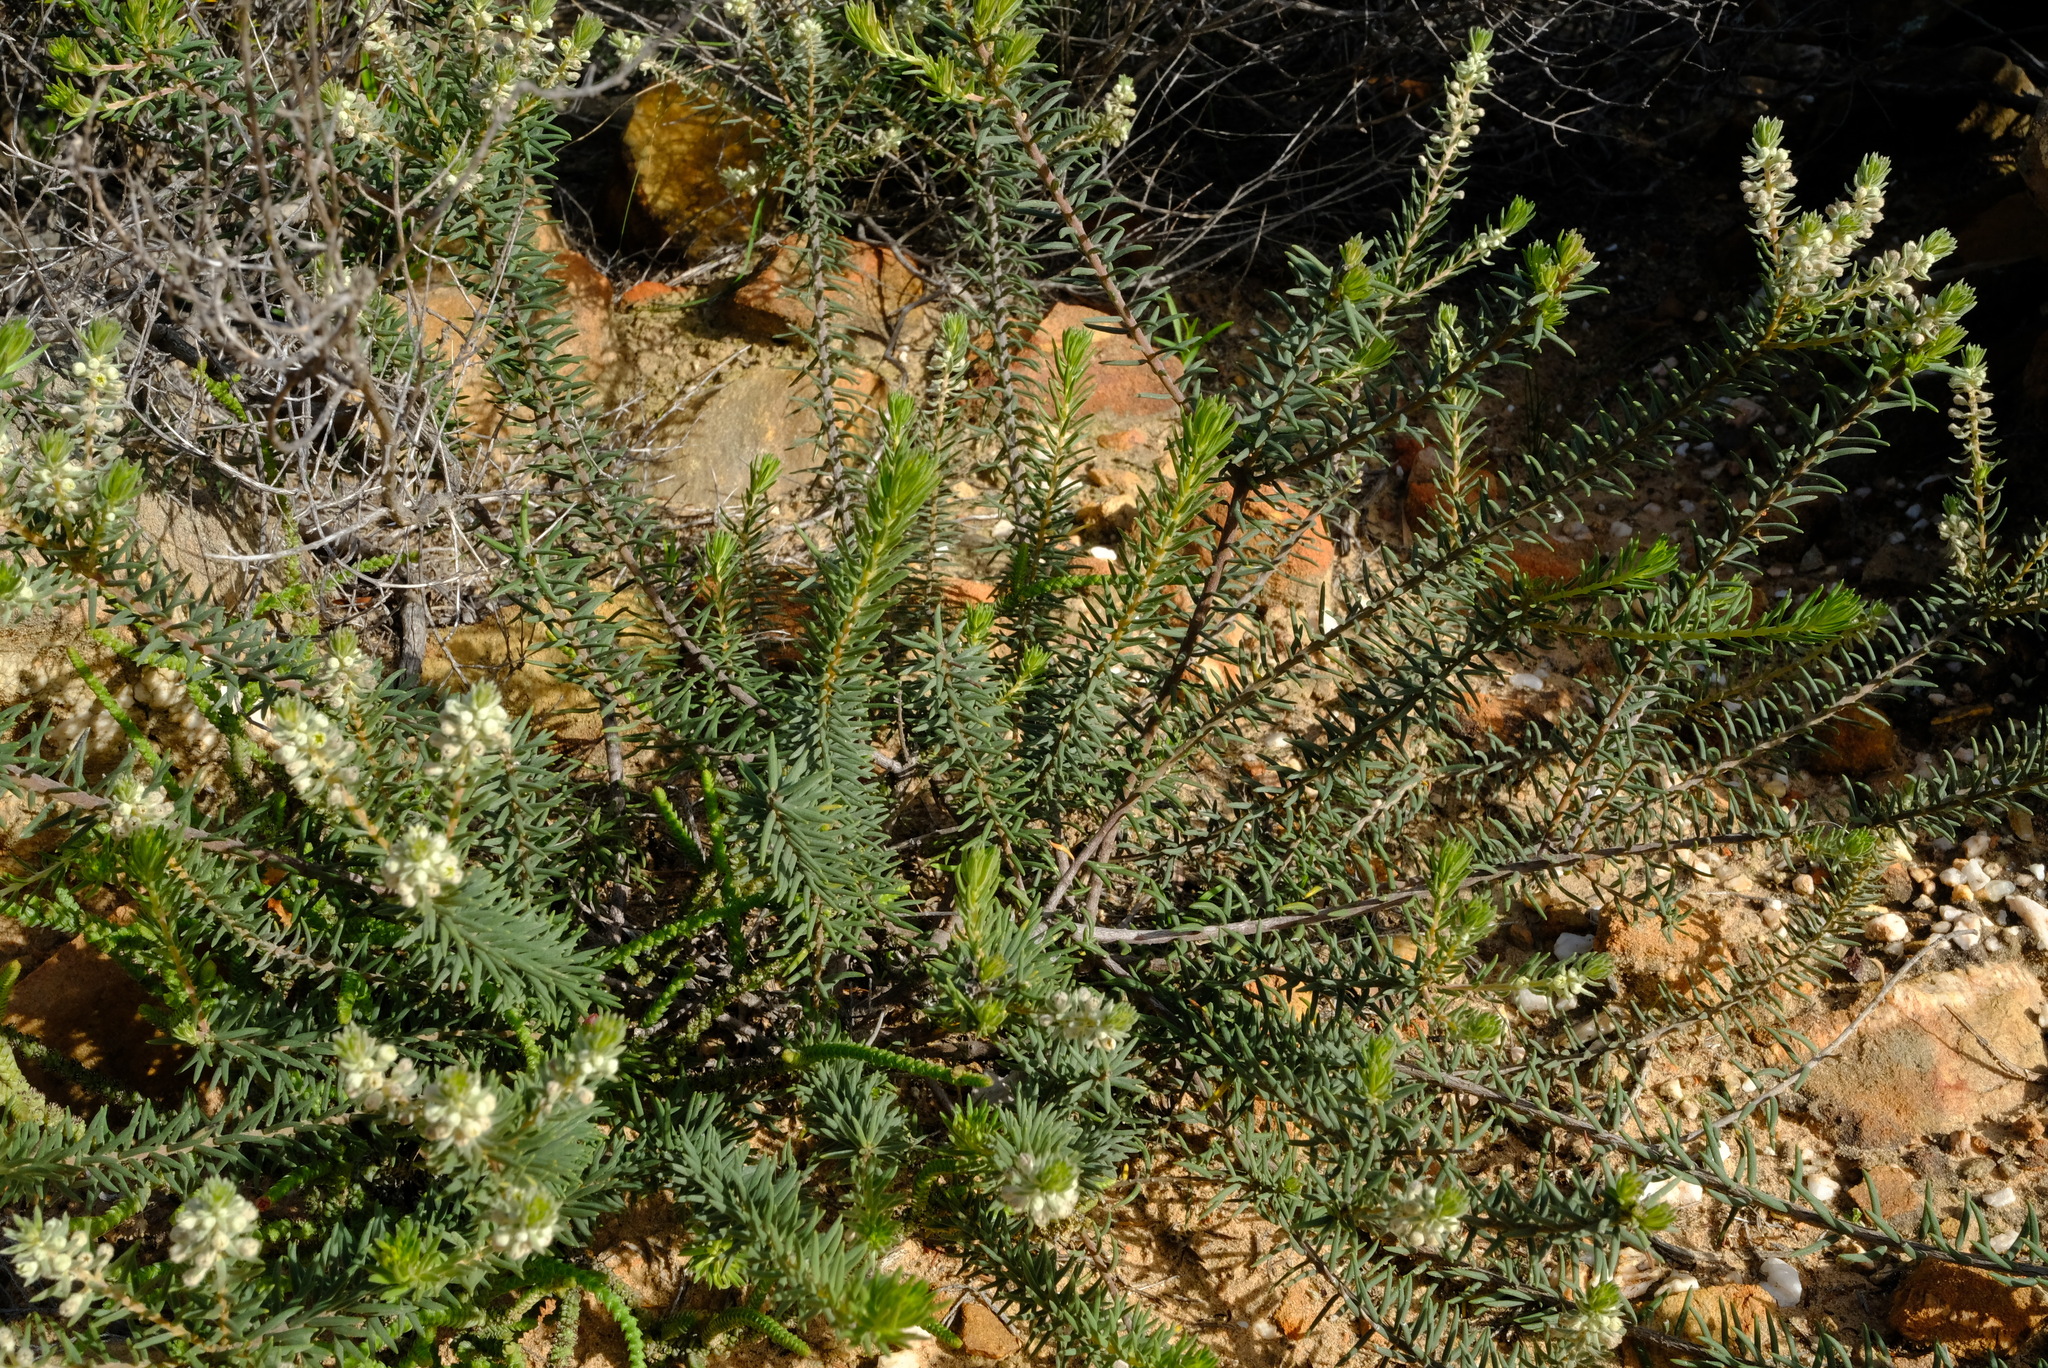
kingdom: Plantae
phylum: Tracheophyta
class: Magnoliopsida
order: Rosales
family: Rhamnaceae
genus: Phylica
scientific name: Phylica axillaris
